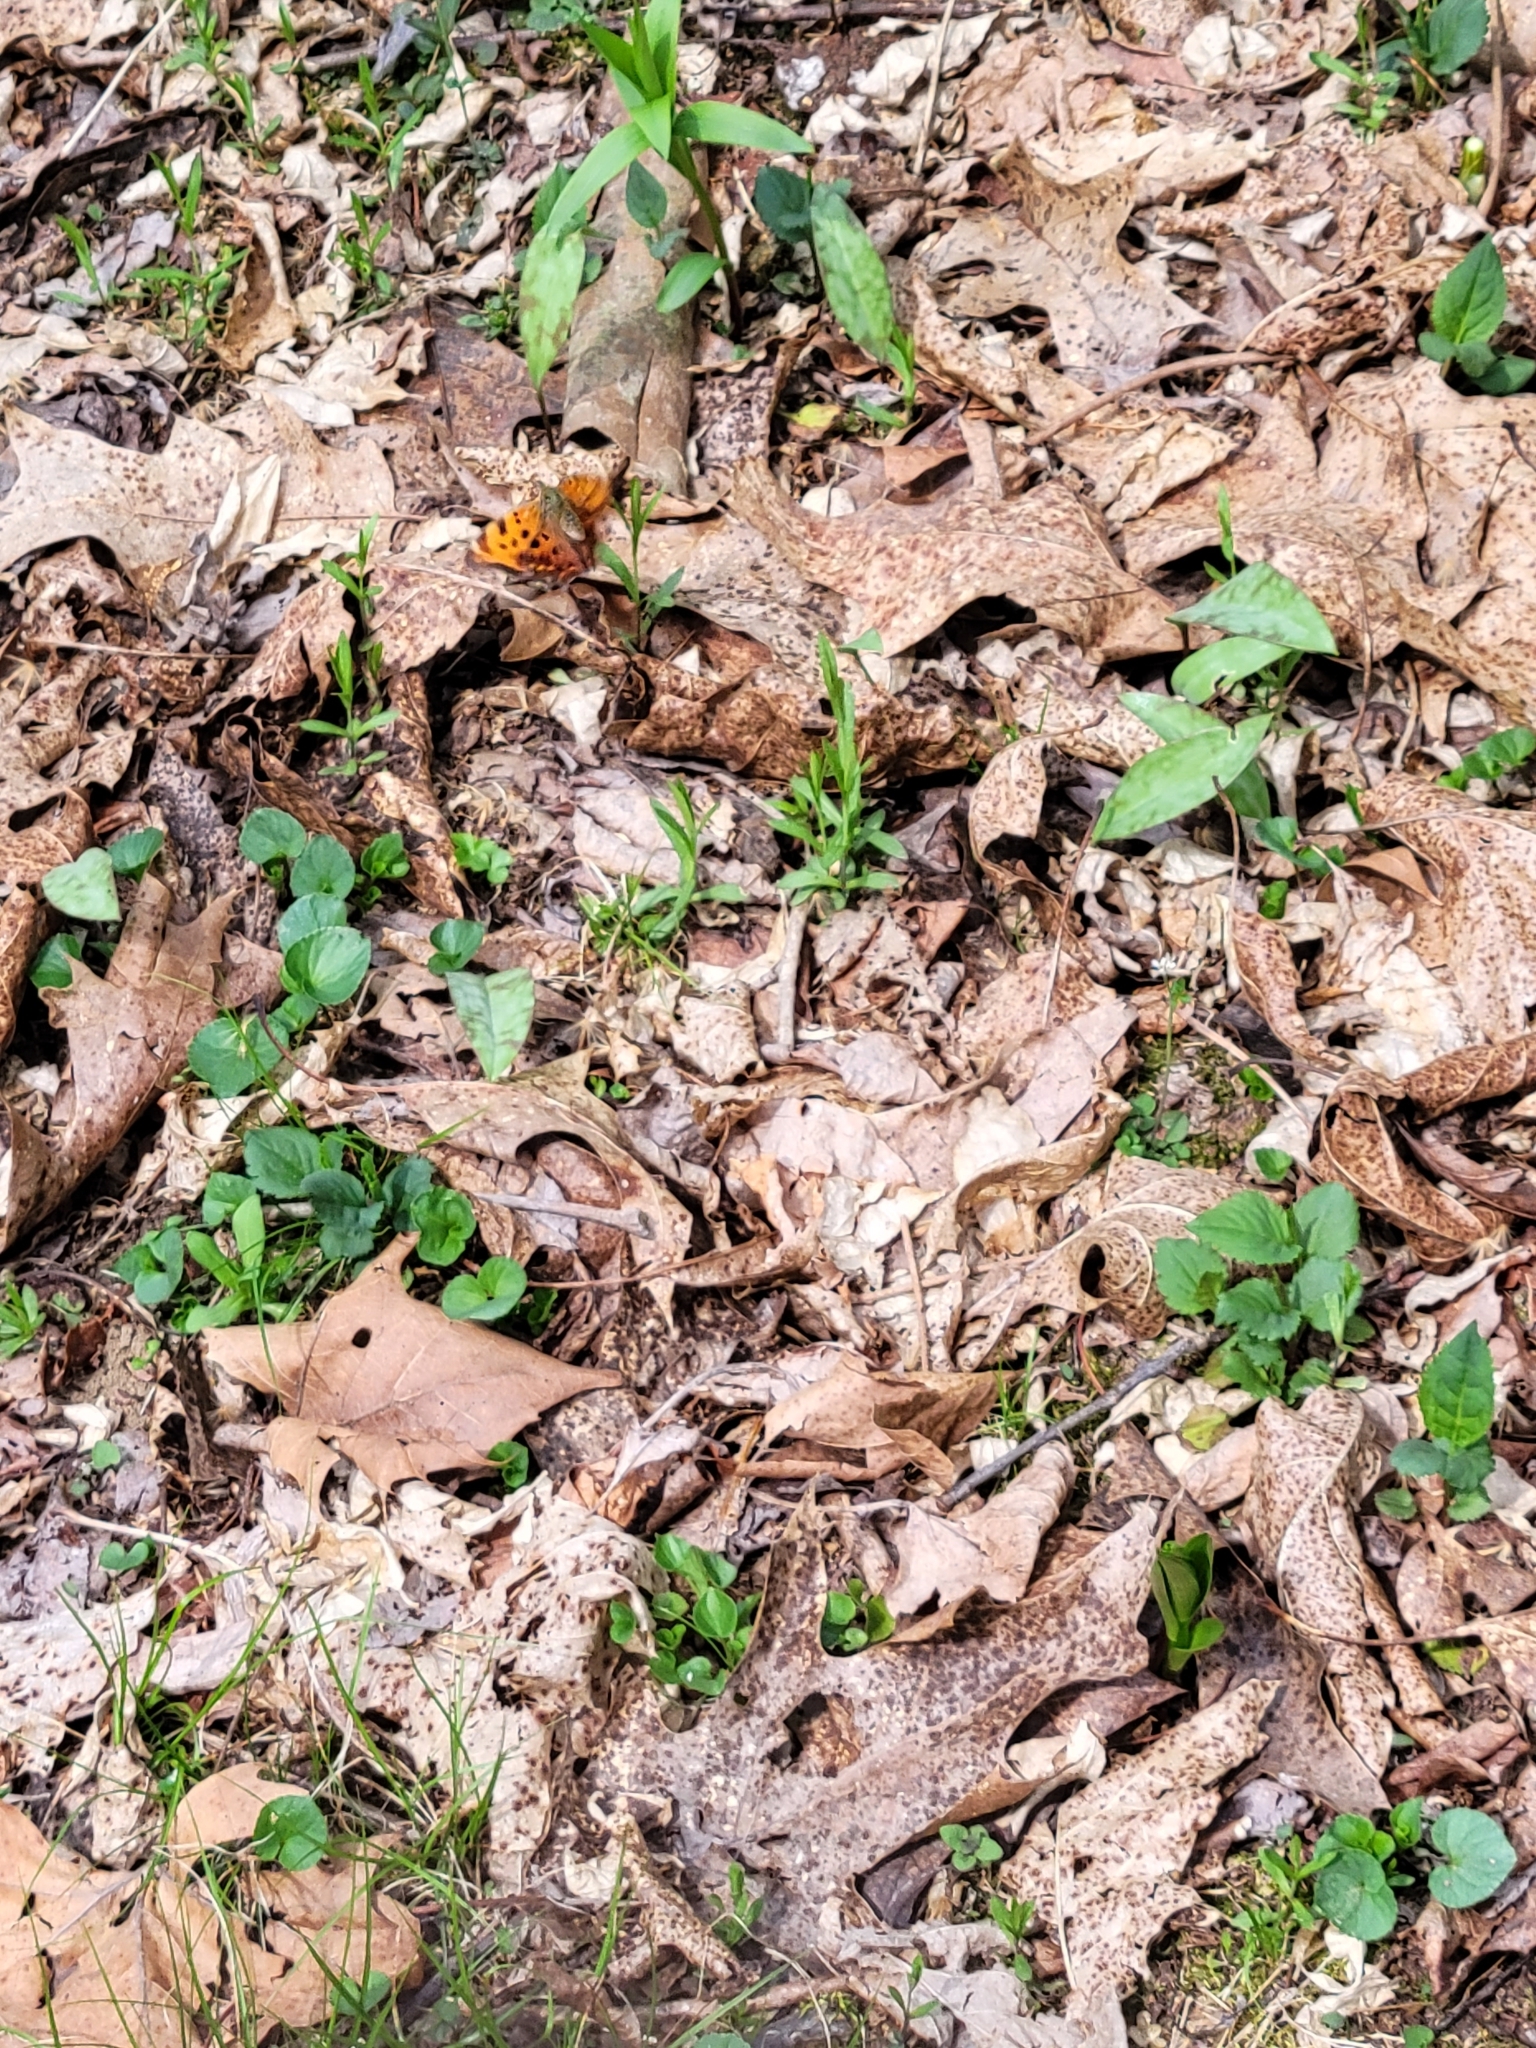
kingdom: Animalia
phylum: Arthropoda
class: Insecta
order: Lepidoptera
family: Nymphalidae
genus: Polygonia
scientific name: Polygonia comma
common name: Eastern comma
